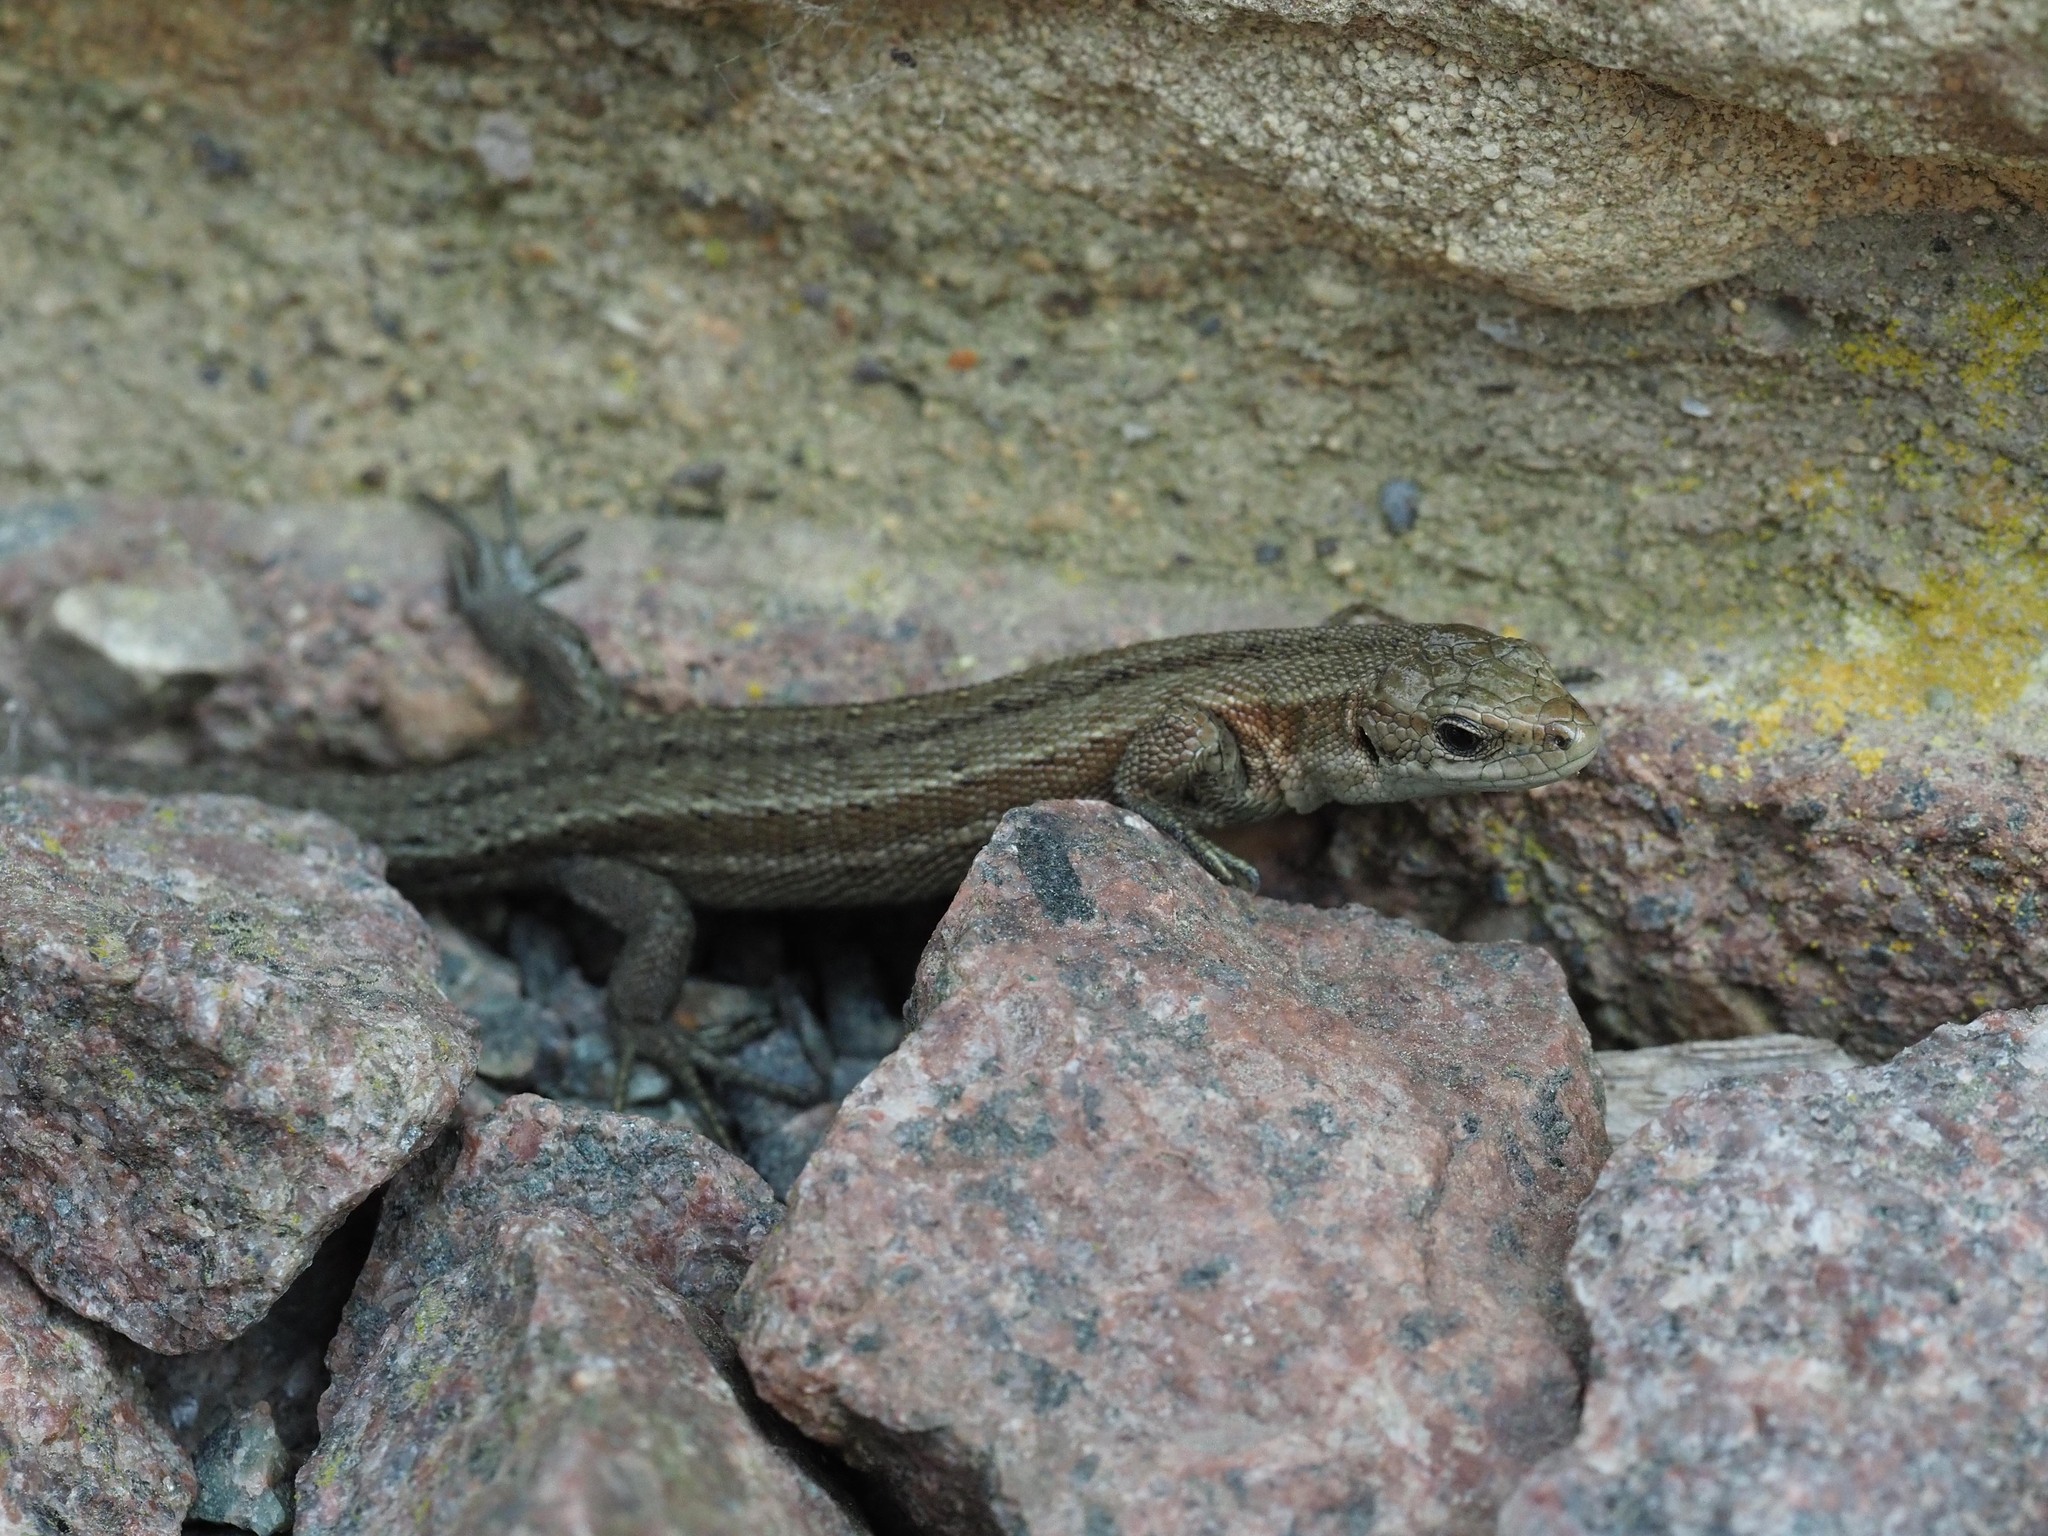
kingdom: Animalia
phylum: Chordata
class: Squamata
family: Lacertidae
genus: Zootoca
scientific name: Zootoca vivipara
